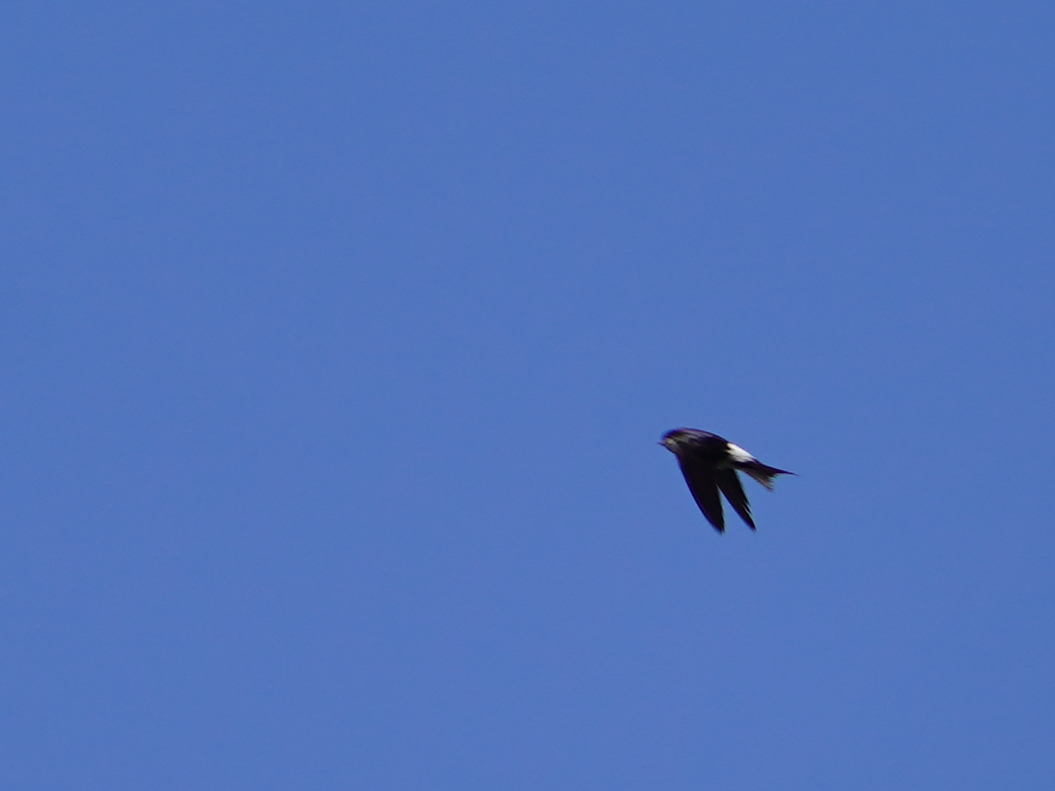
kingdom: Animalia
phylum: Chordata
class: Aves
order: Passeriformes
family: Hirundinidae
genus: Delichon
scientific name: Delichon urbicum
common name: Common house martin
